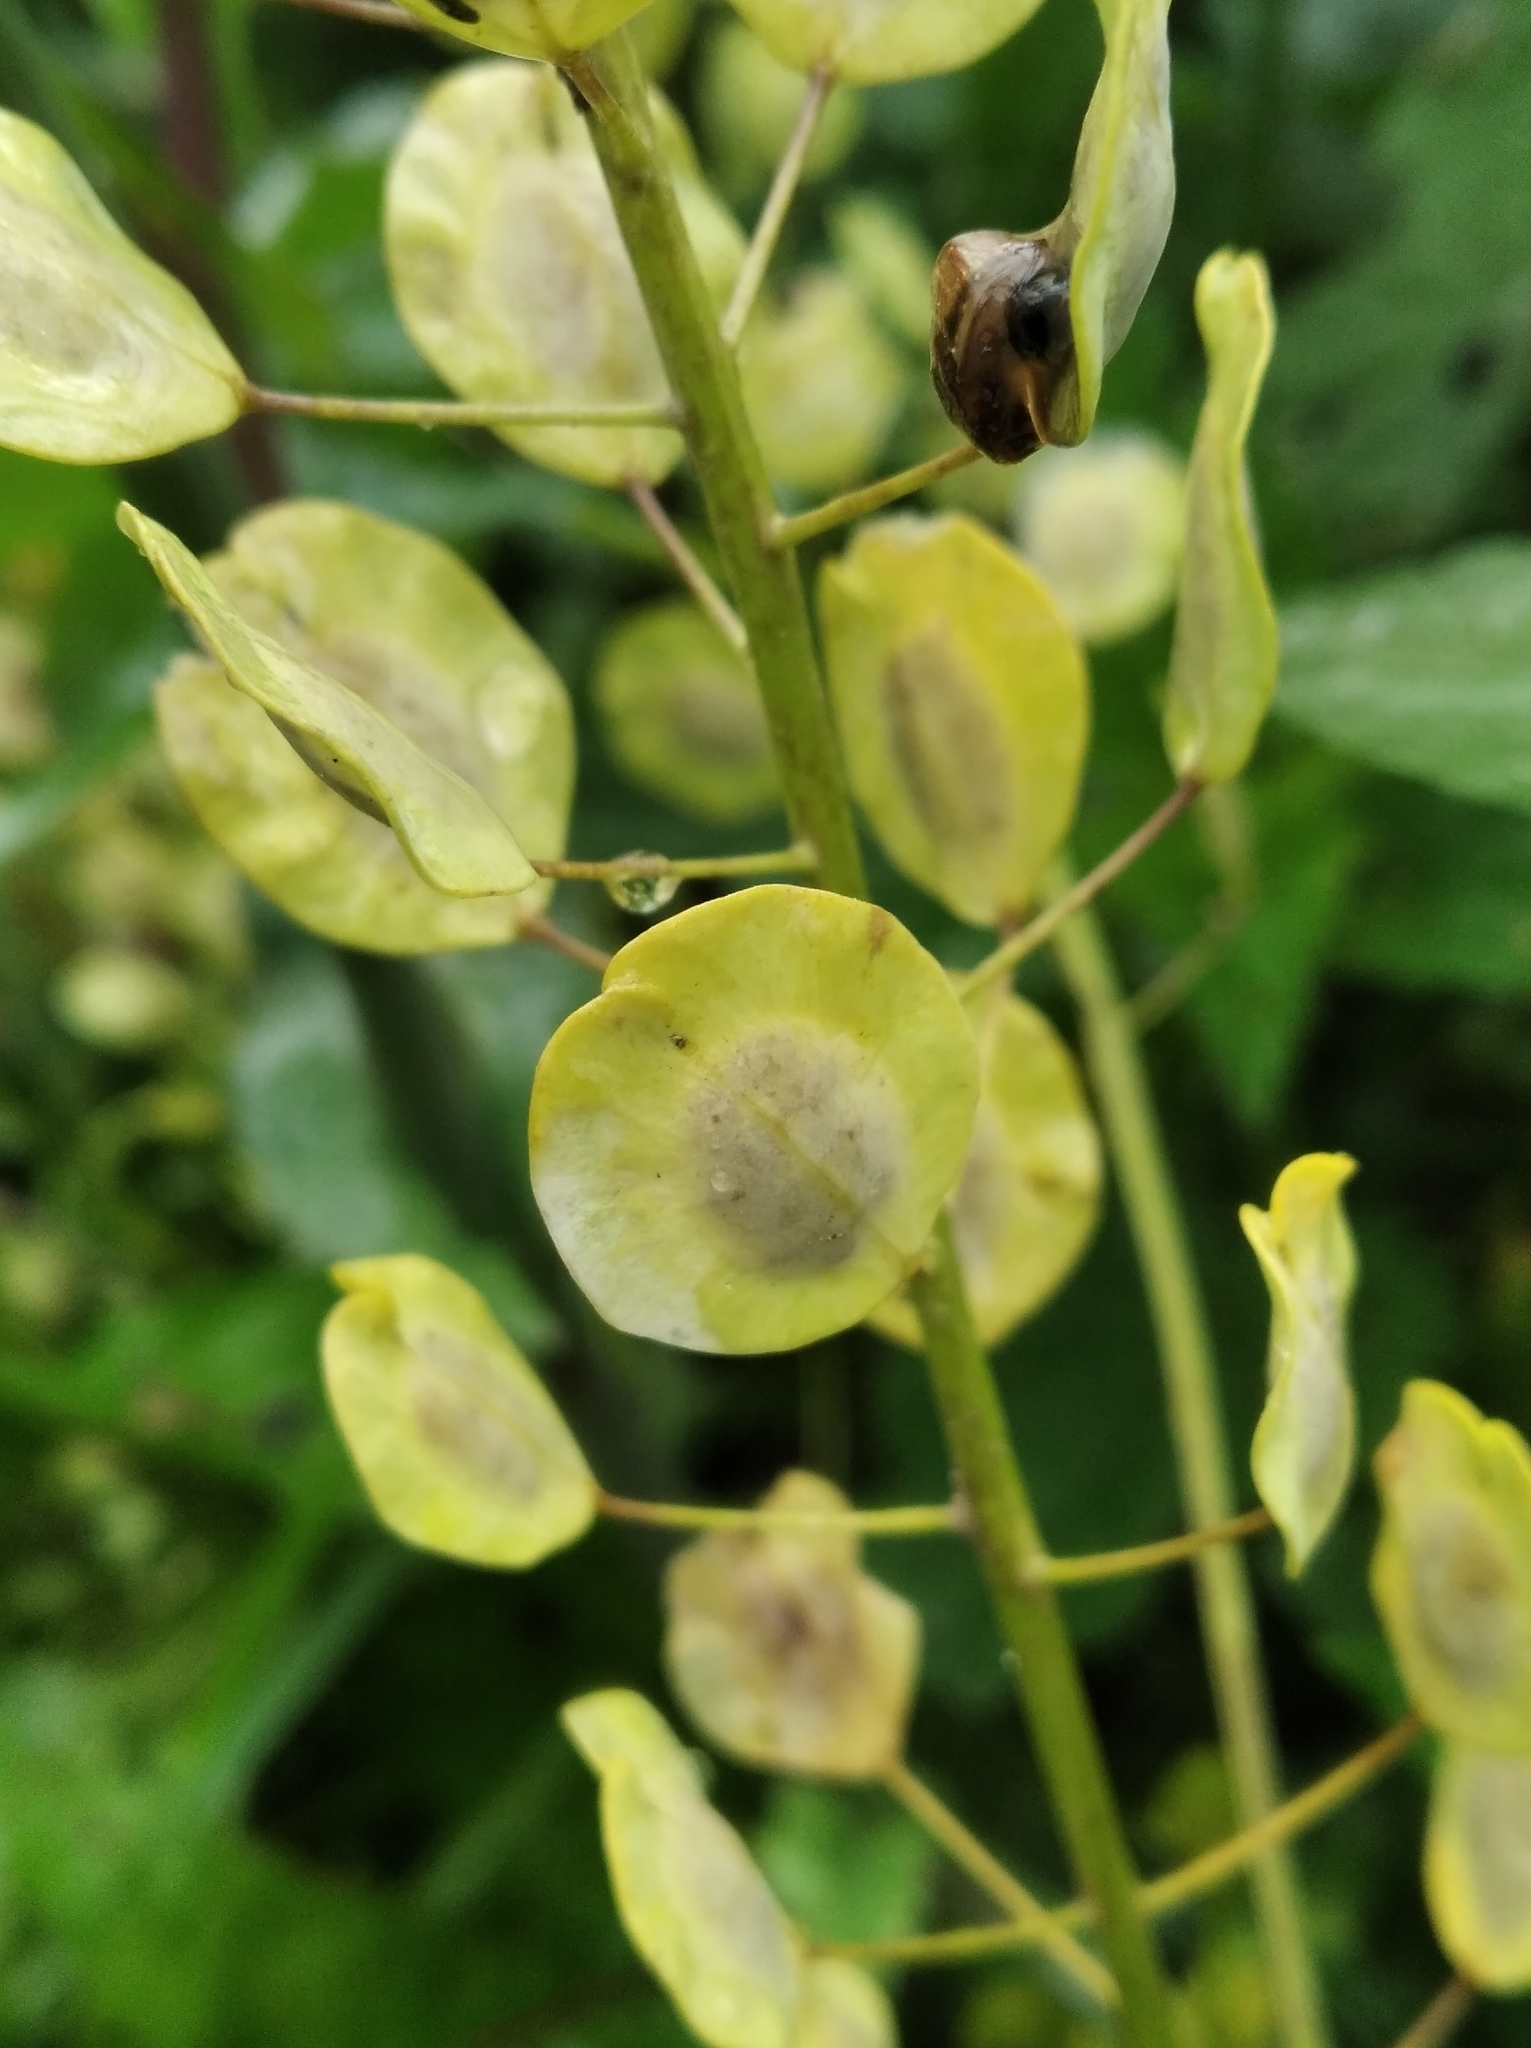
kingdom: Plantae
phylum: Tracheophyta
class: Magnoliopsida
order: Brassicales
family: Brassicaceae
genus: Thlaspi
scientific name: Thlaspi arvense
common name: Field pennycress
